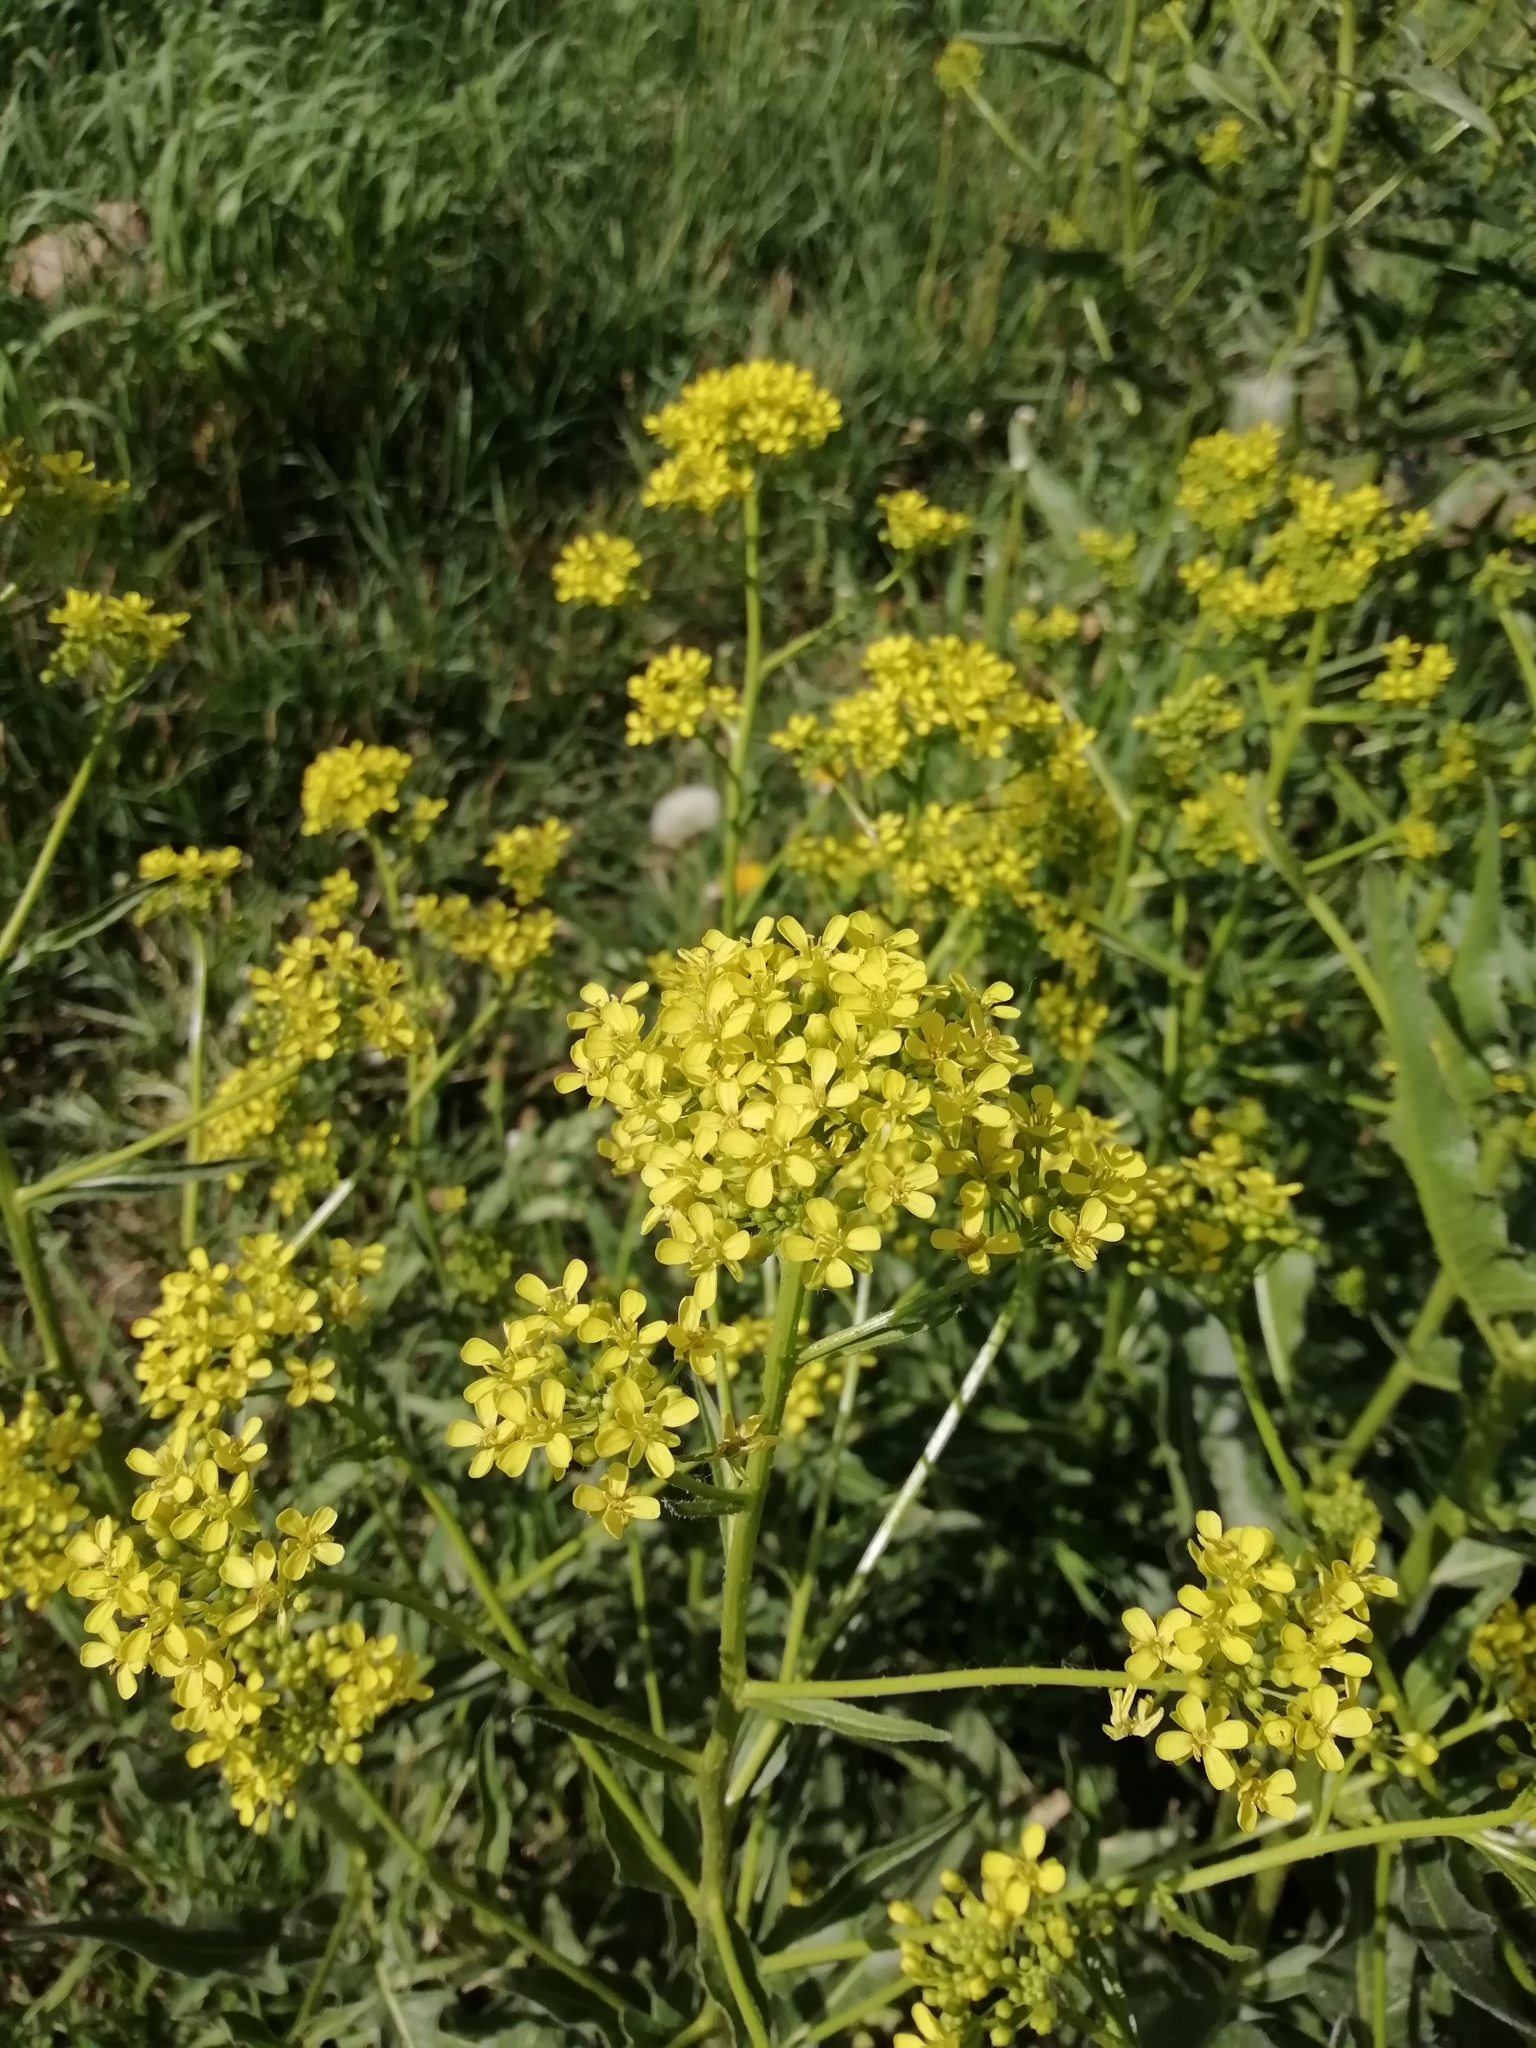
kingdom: Plantae
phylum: Tracheophyta
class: Magnoliopsida
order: Brassicales
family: Brassicaceae
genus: Bunias
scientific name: Bunias orientalis
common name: Warty-cabbage
